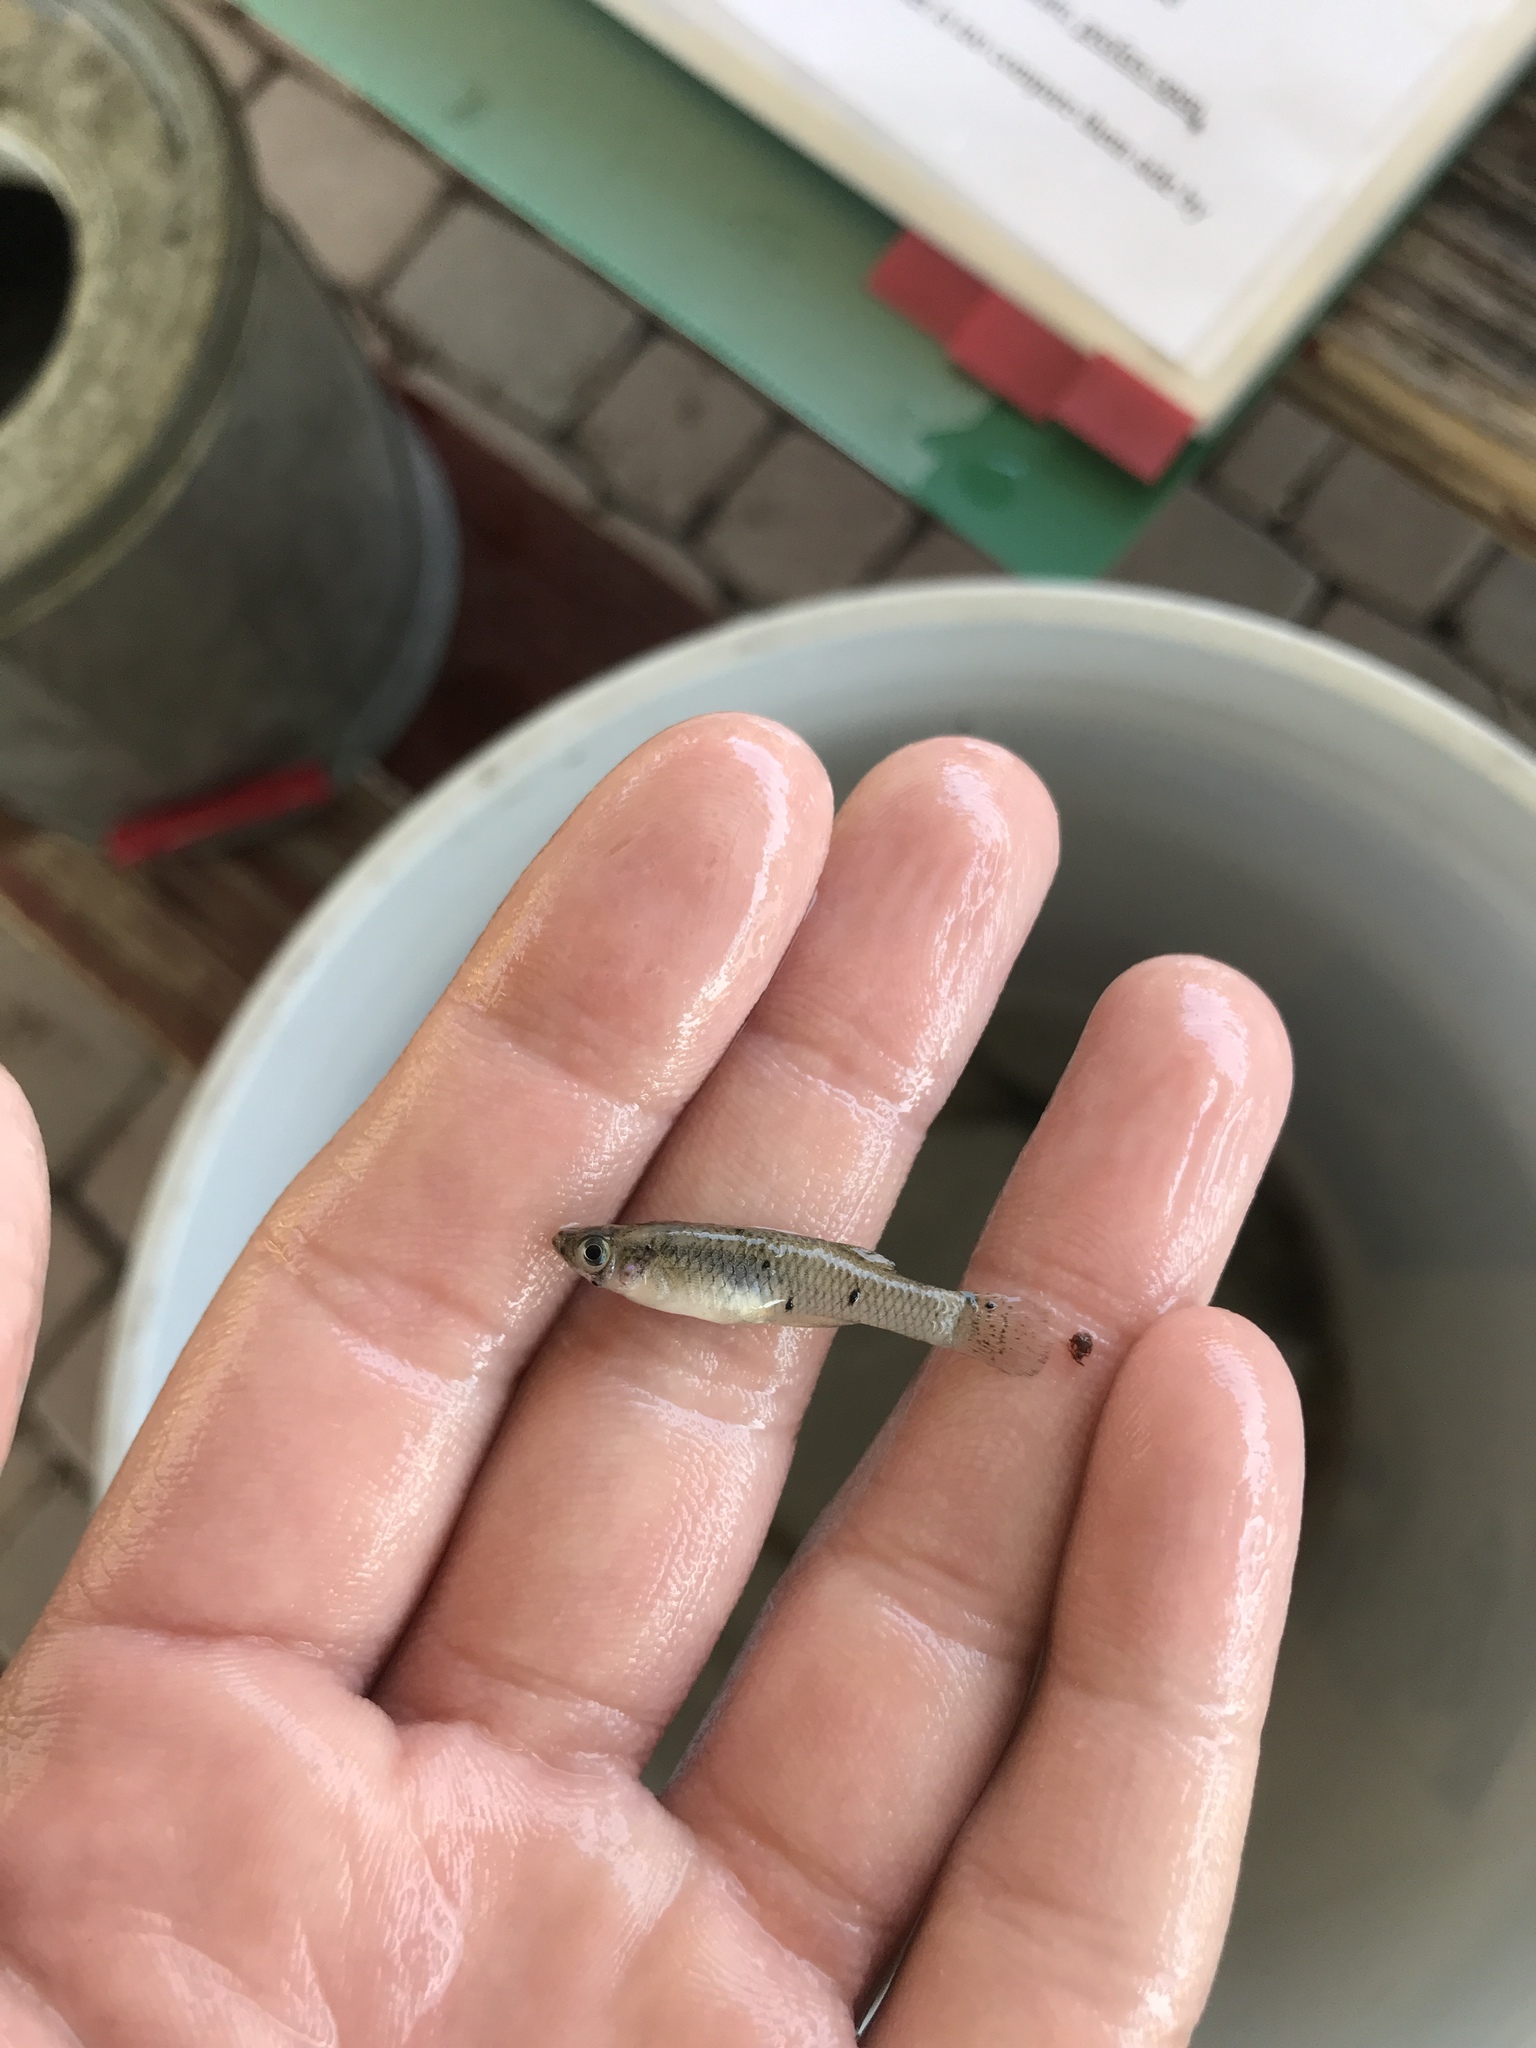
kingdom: Animalia
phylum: Chordata
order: Cyprinodontiformes
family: Poeciliidae
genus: Gambusia
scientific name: Gambusia affinis
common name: Mosquitofish
